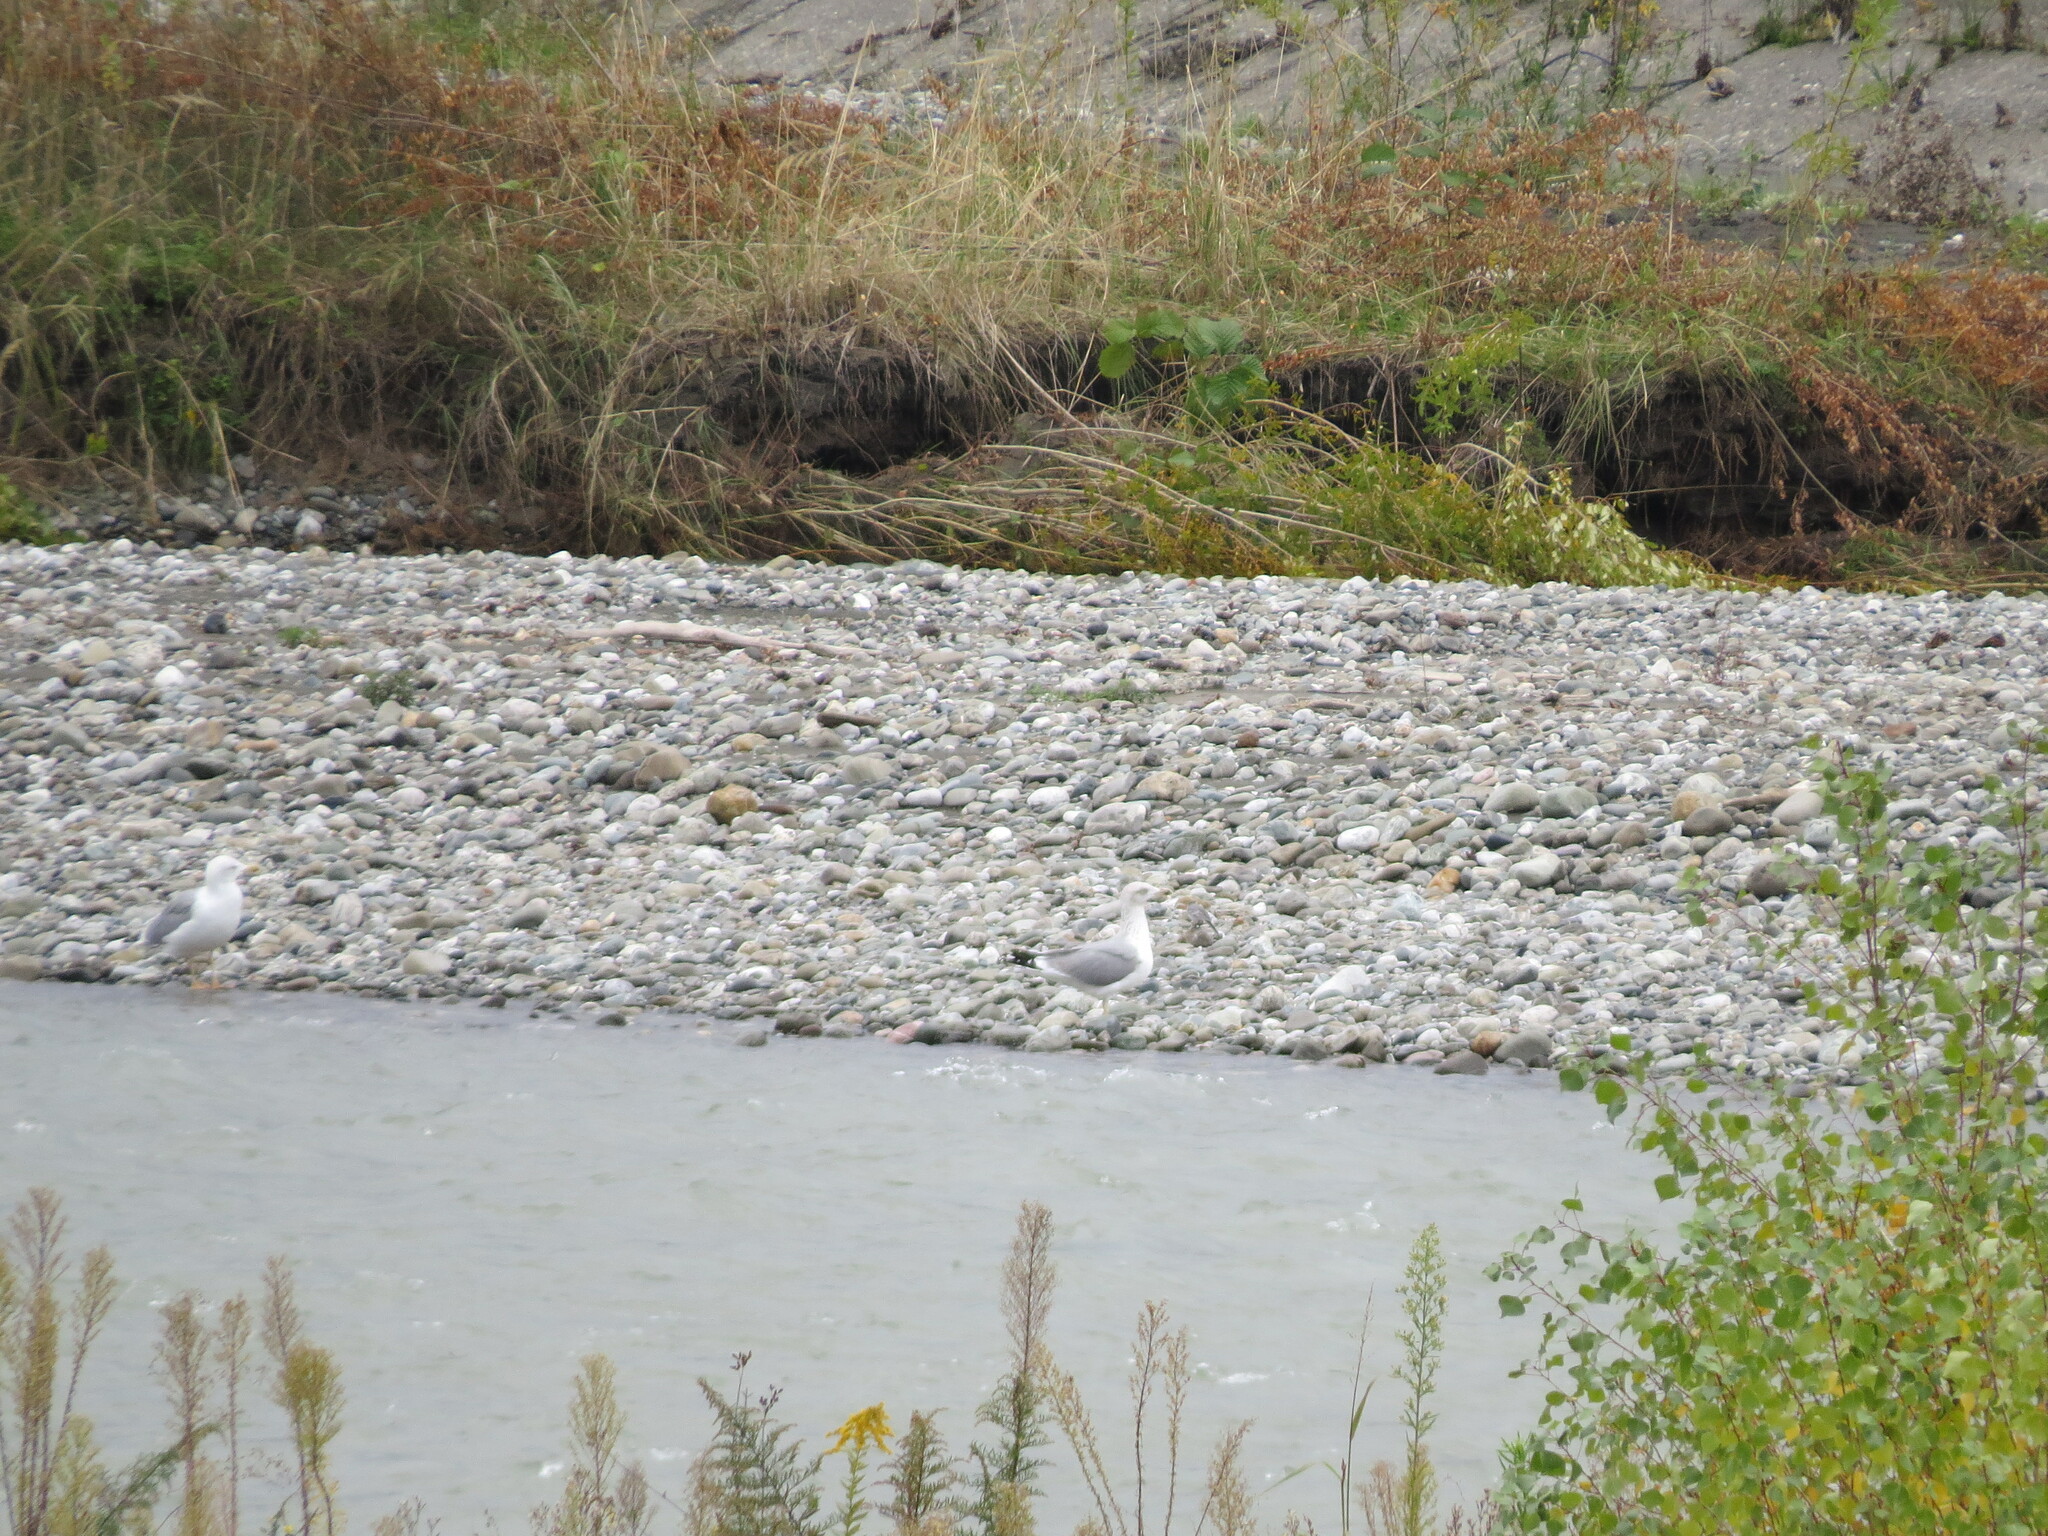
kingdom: Animalia
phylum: Chordata
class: Aves
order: Charadriiformes
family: Laridae
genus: Larus
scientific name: Larus michahellis
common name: Yellow-legged gull
